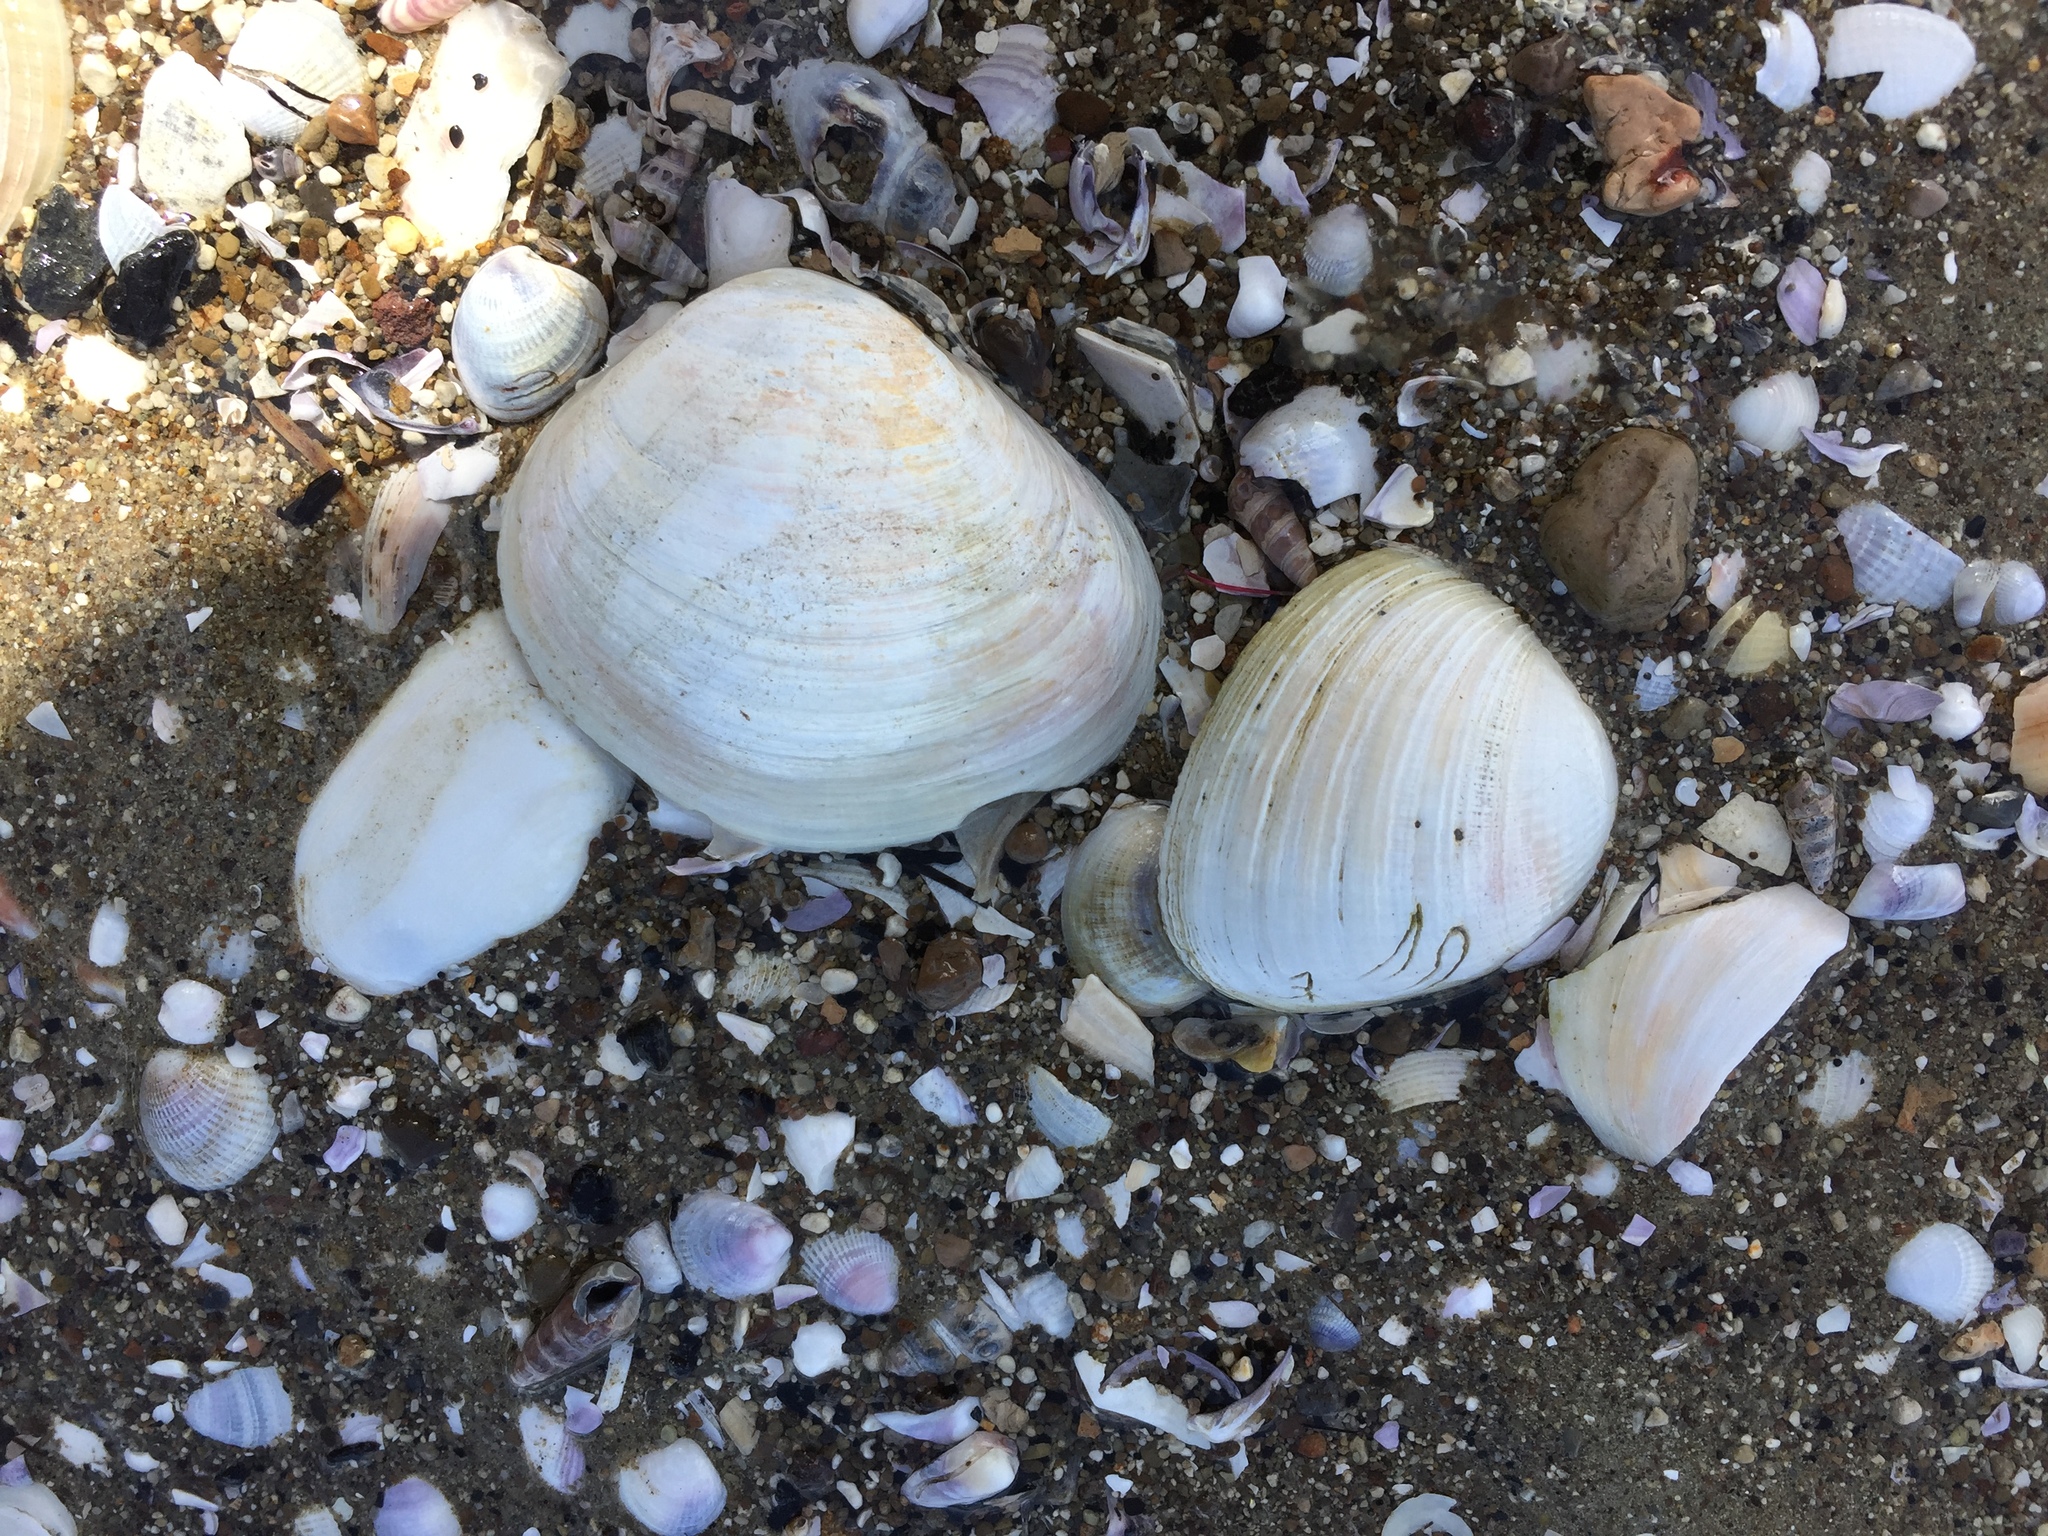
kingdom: Animalia
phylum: Mollusca
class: Bivalvia
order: Venerida
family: Mactridae
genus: Cyclomactra
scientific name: Cyclomactra ovata
